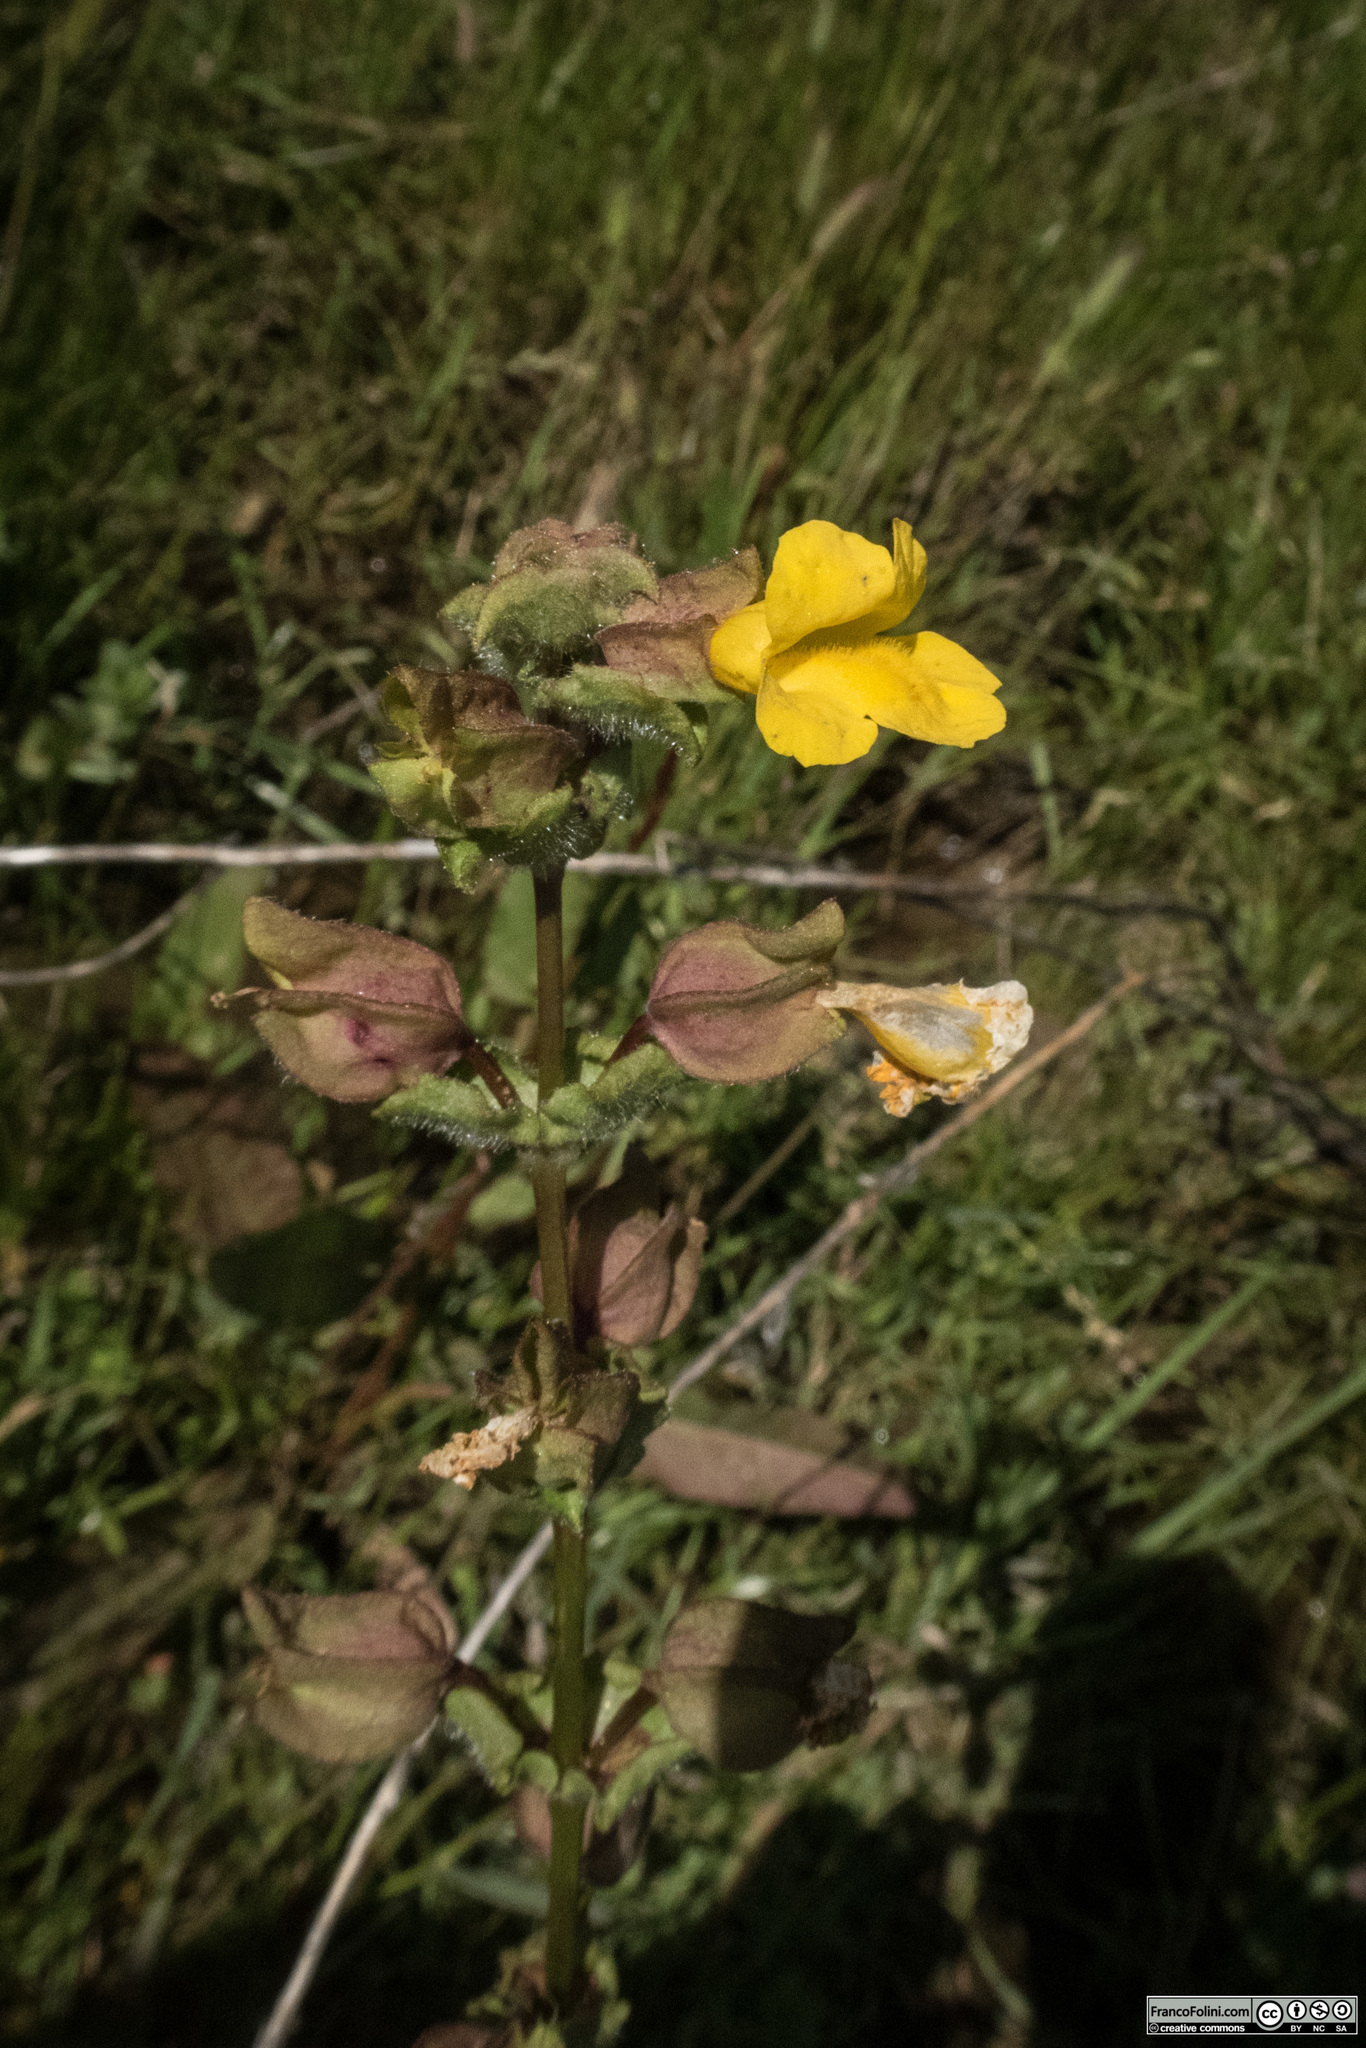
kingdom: Plantae
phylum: Tracheophyta
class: Magnoliopsida
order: Lamiales
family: Phrymaceae
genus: Erythranthe
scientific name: Erythranthe guttata
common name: Monkeyflower
